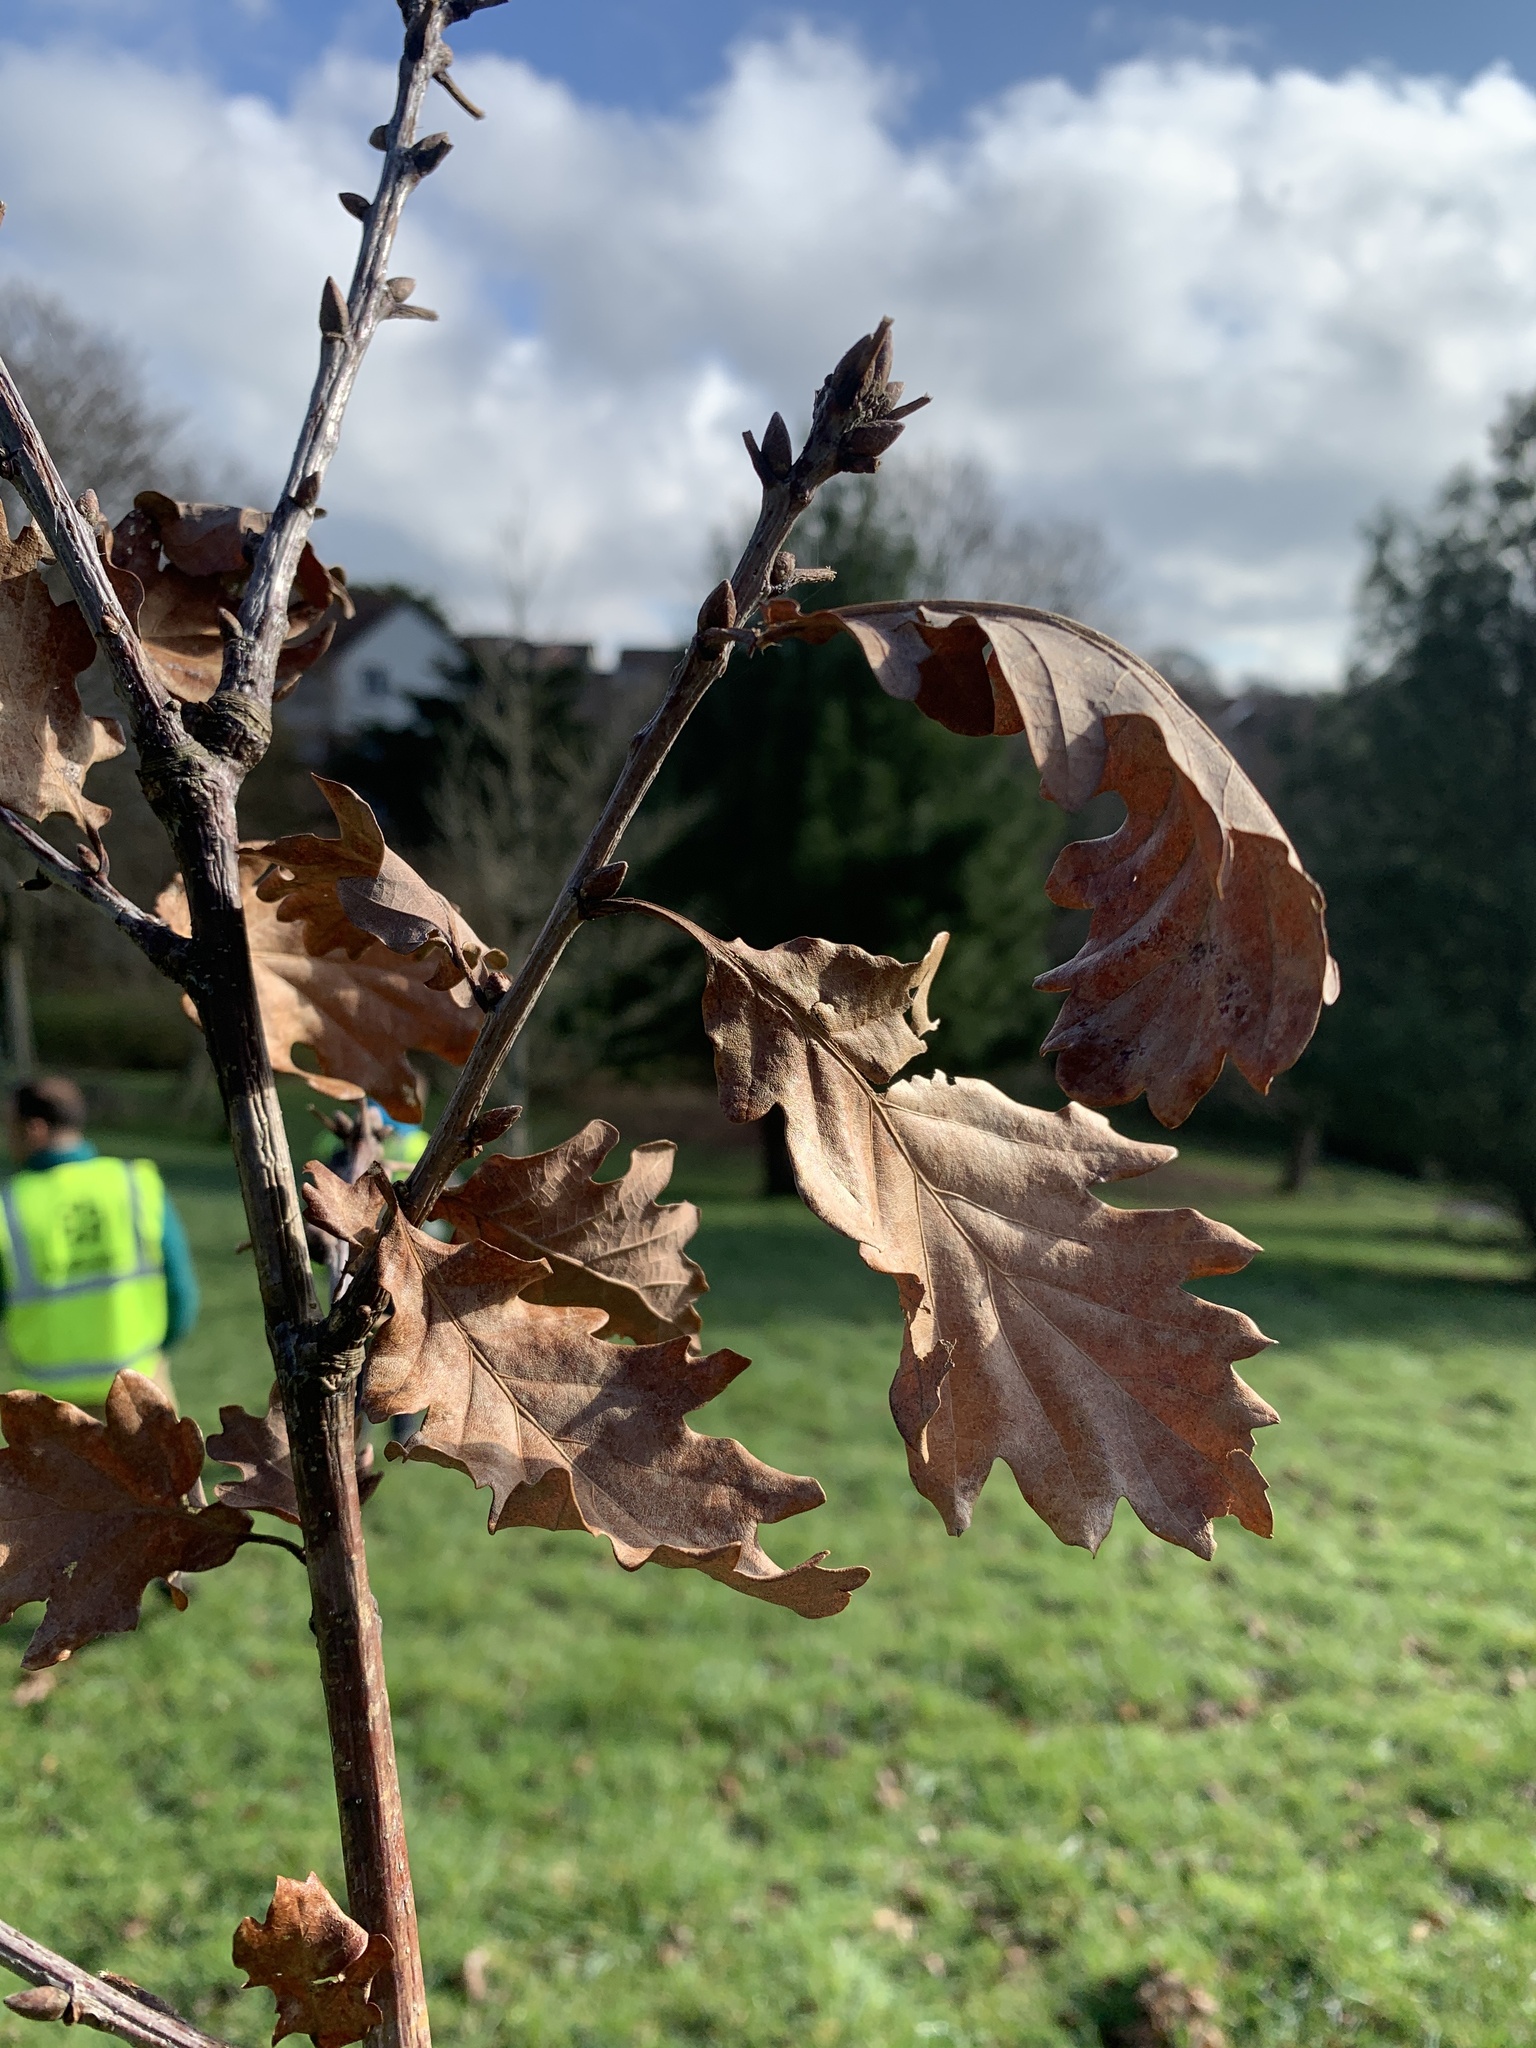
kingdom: Plantae
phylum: Tracheophyta
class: Magnoliopsida
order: Fagales
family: Fagaceae
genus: Quercus
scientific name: Quercus petraea
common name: Sessile oak
